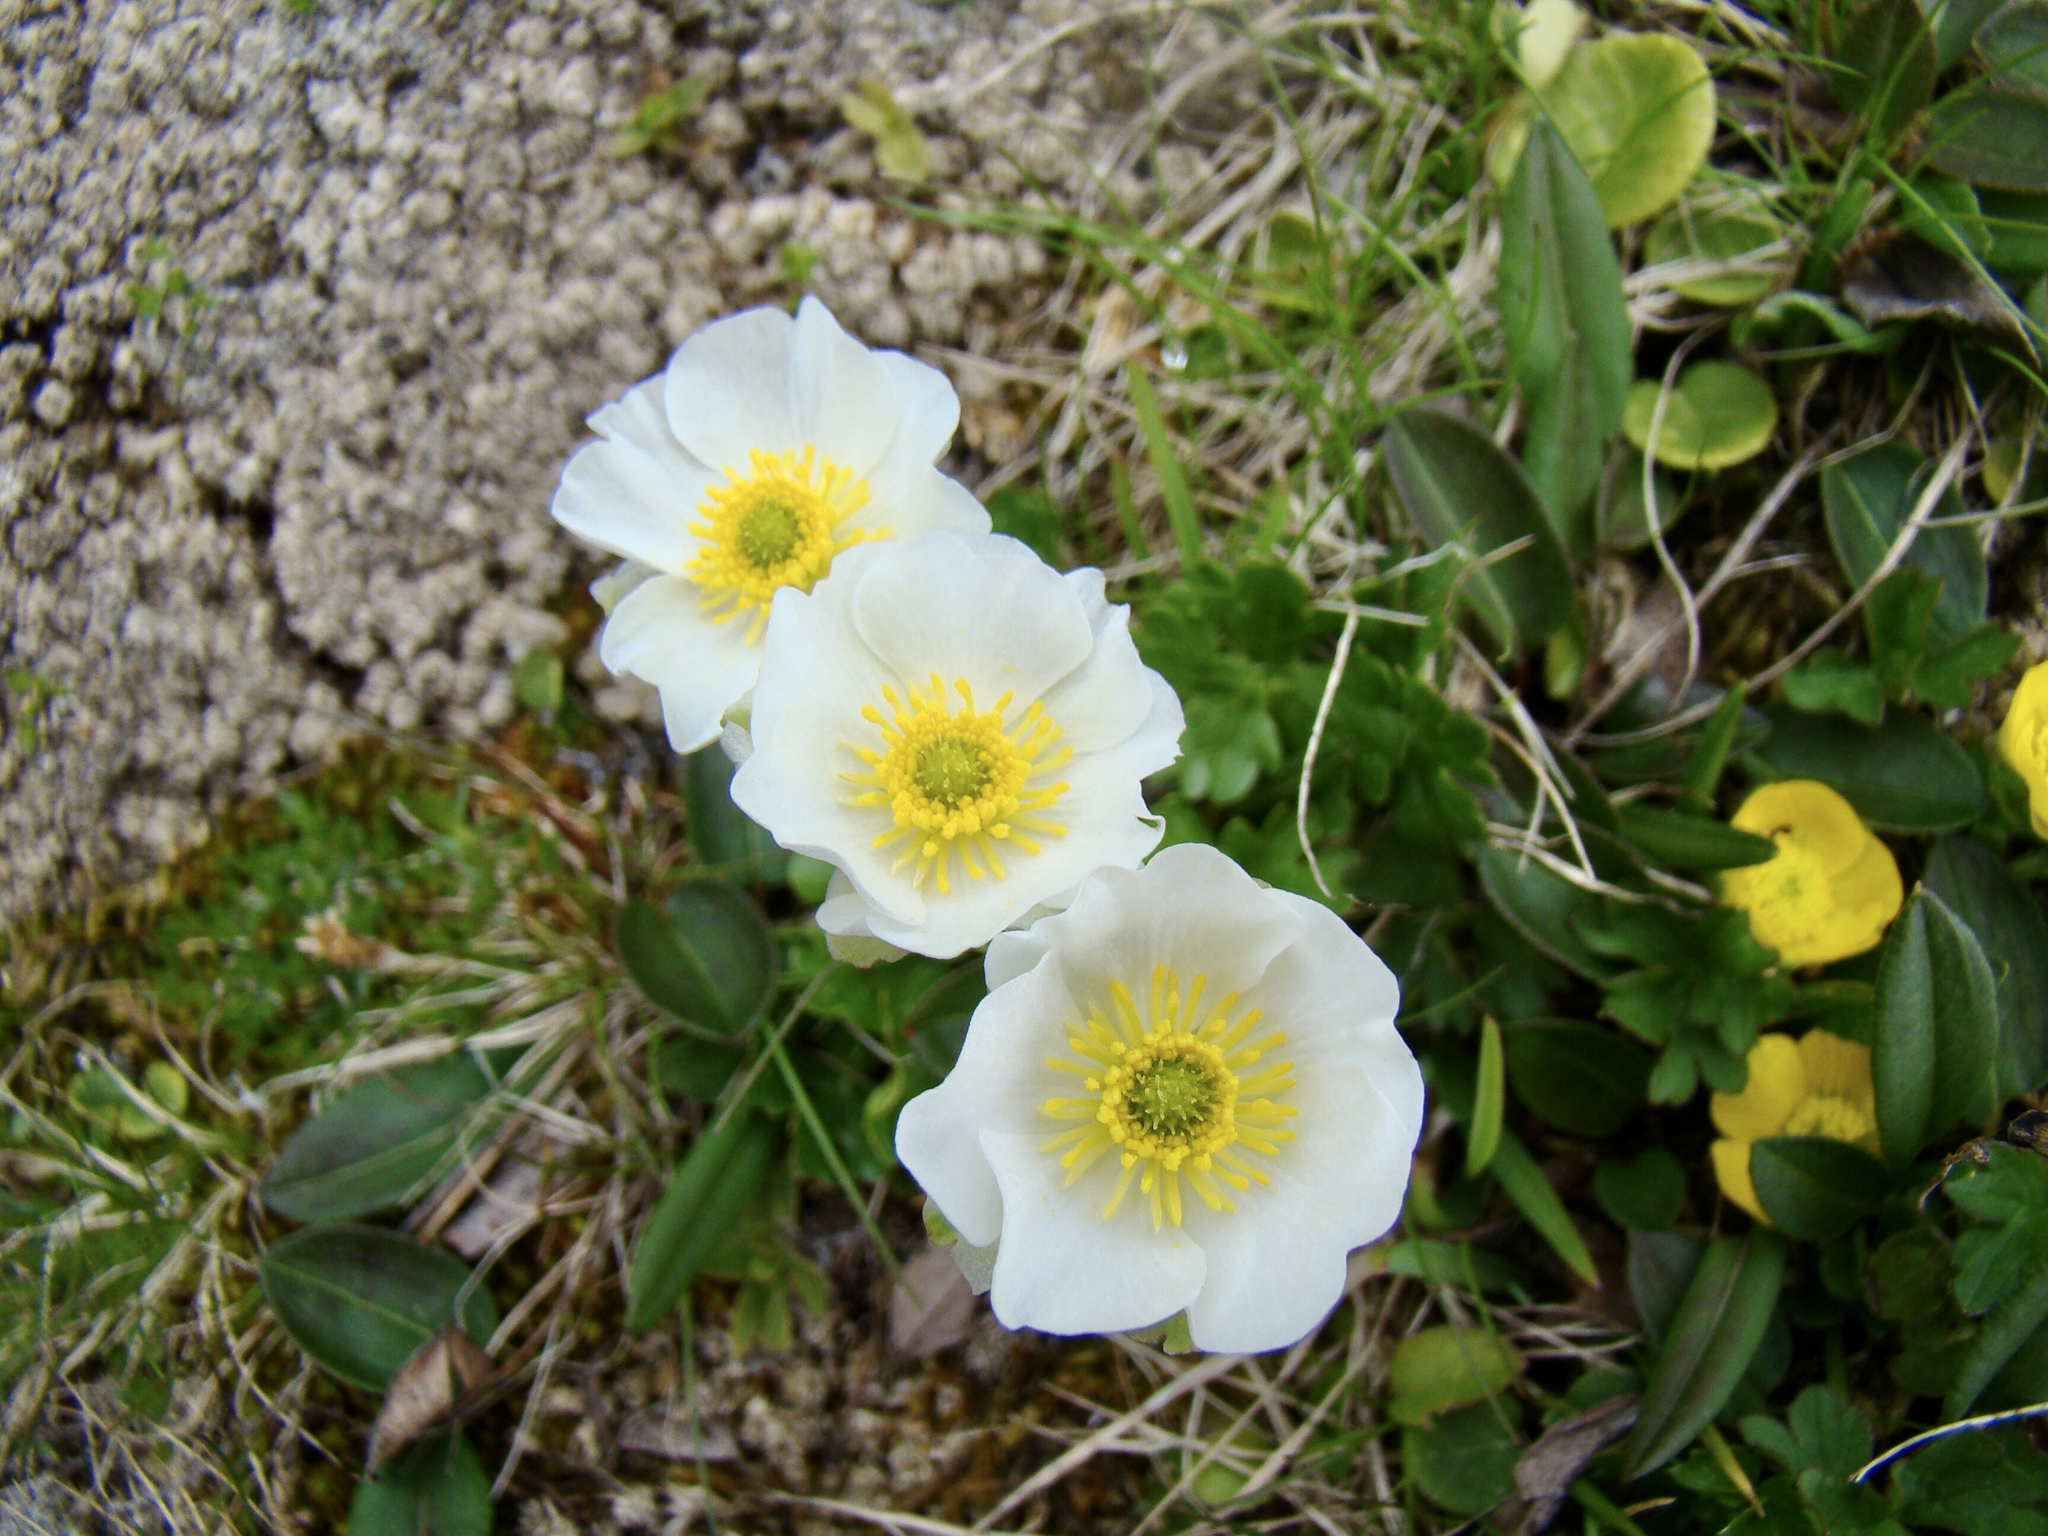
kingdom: Plantae
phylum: Tracheophyta
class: Magnoliopsida
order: Ranunculales
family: Ranunculaceae
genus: Ranunculus
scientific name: Ranunculus glacialis
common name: Glacier buttercup
